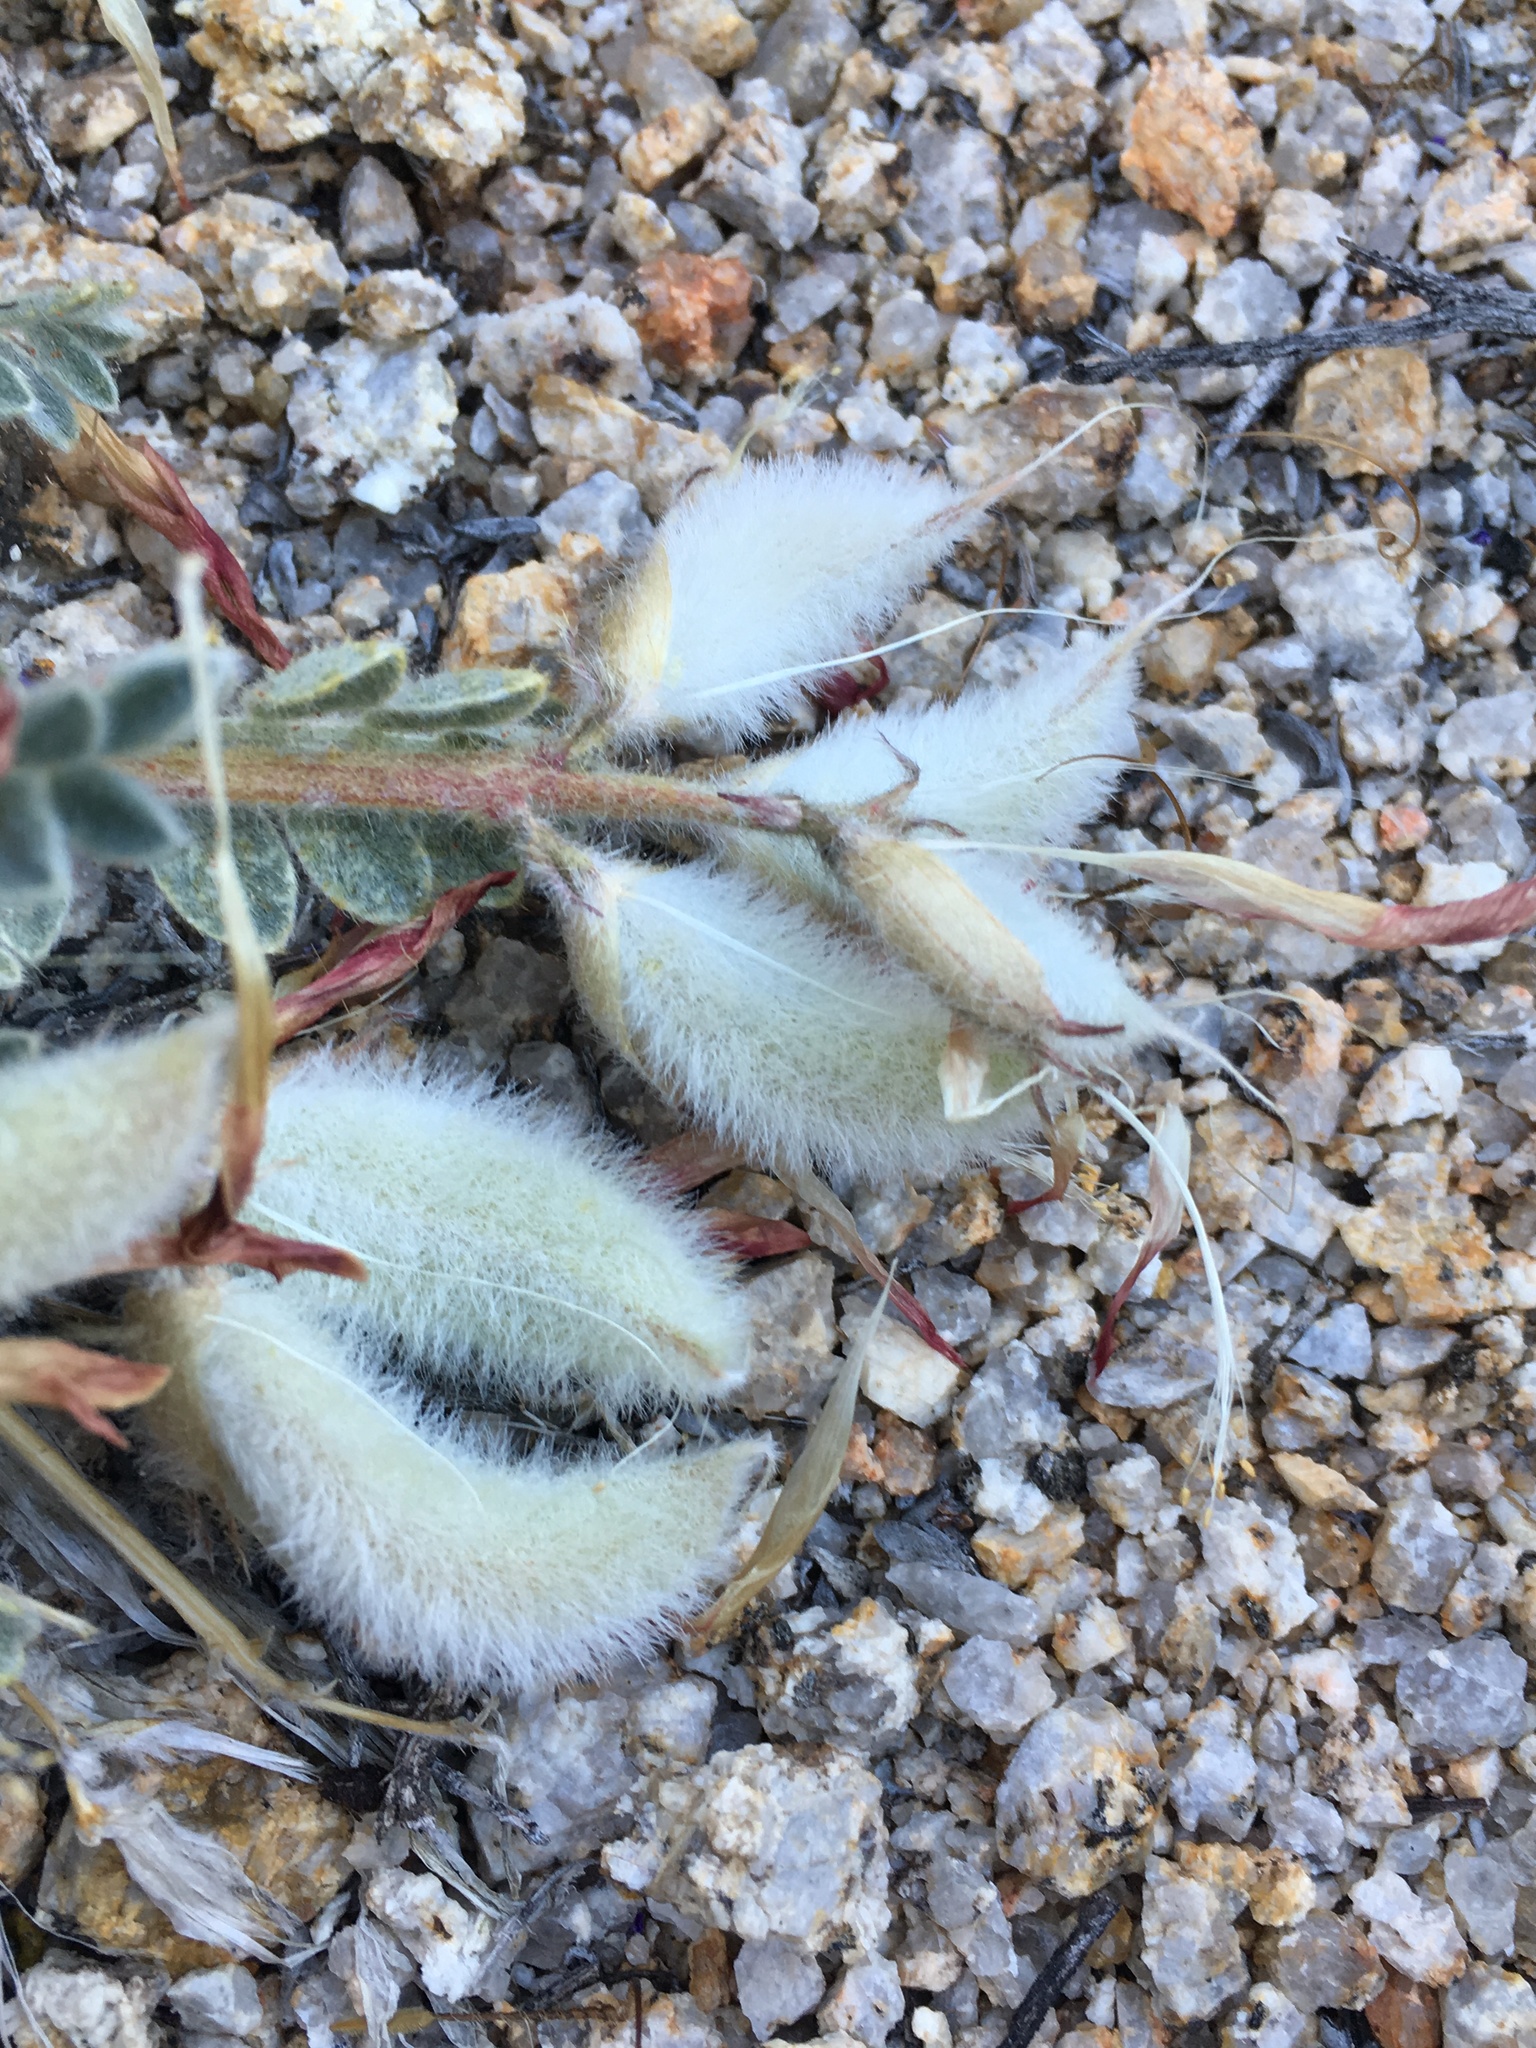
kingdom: Plantae
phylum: Tracheophyta
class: Magnoliopsida
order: Fabales
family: Fabaceae
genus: Astragalus
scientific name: Astragalus coccineus
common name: Scarlet milk-vetch
